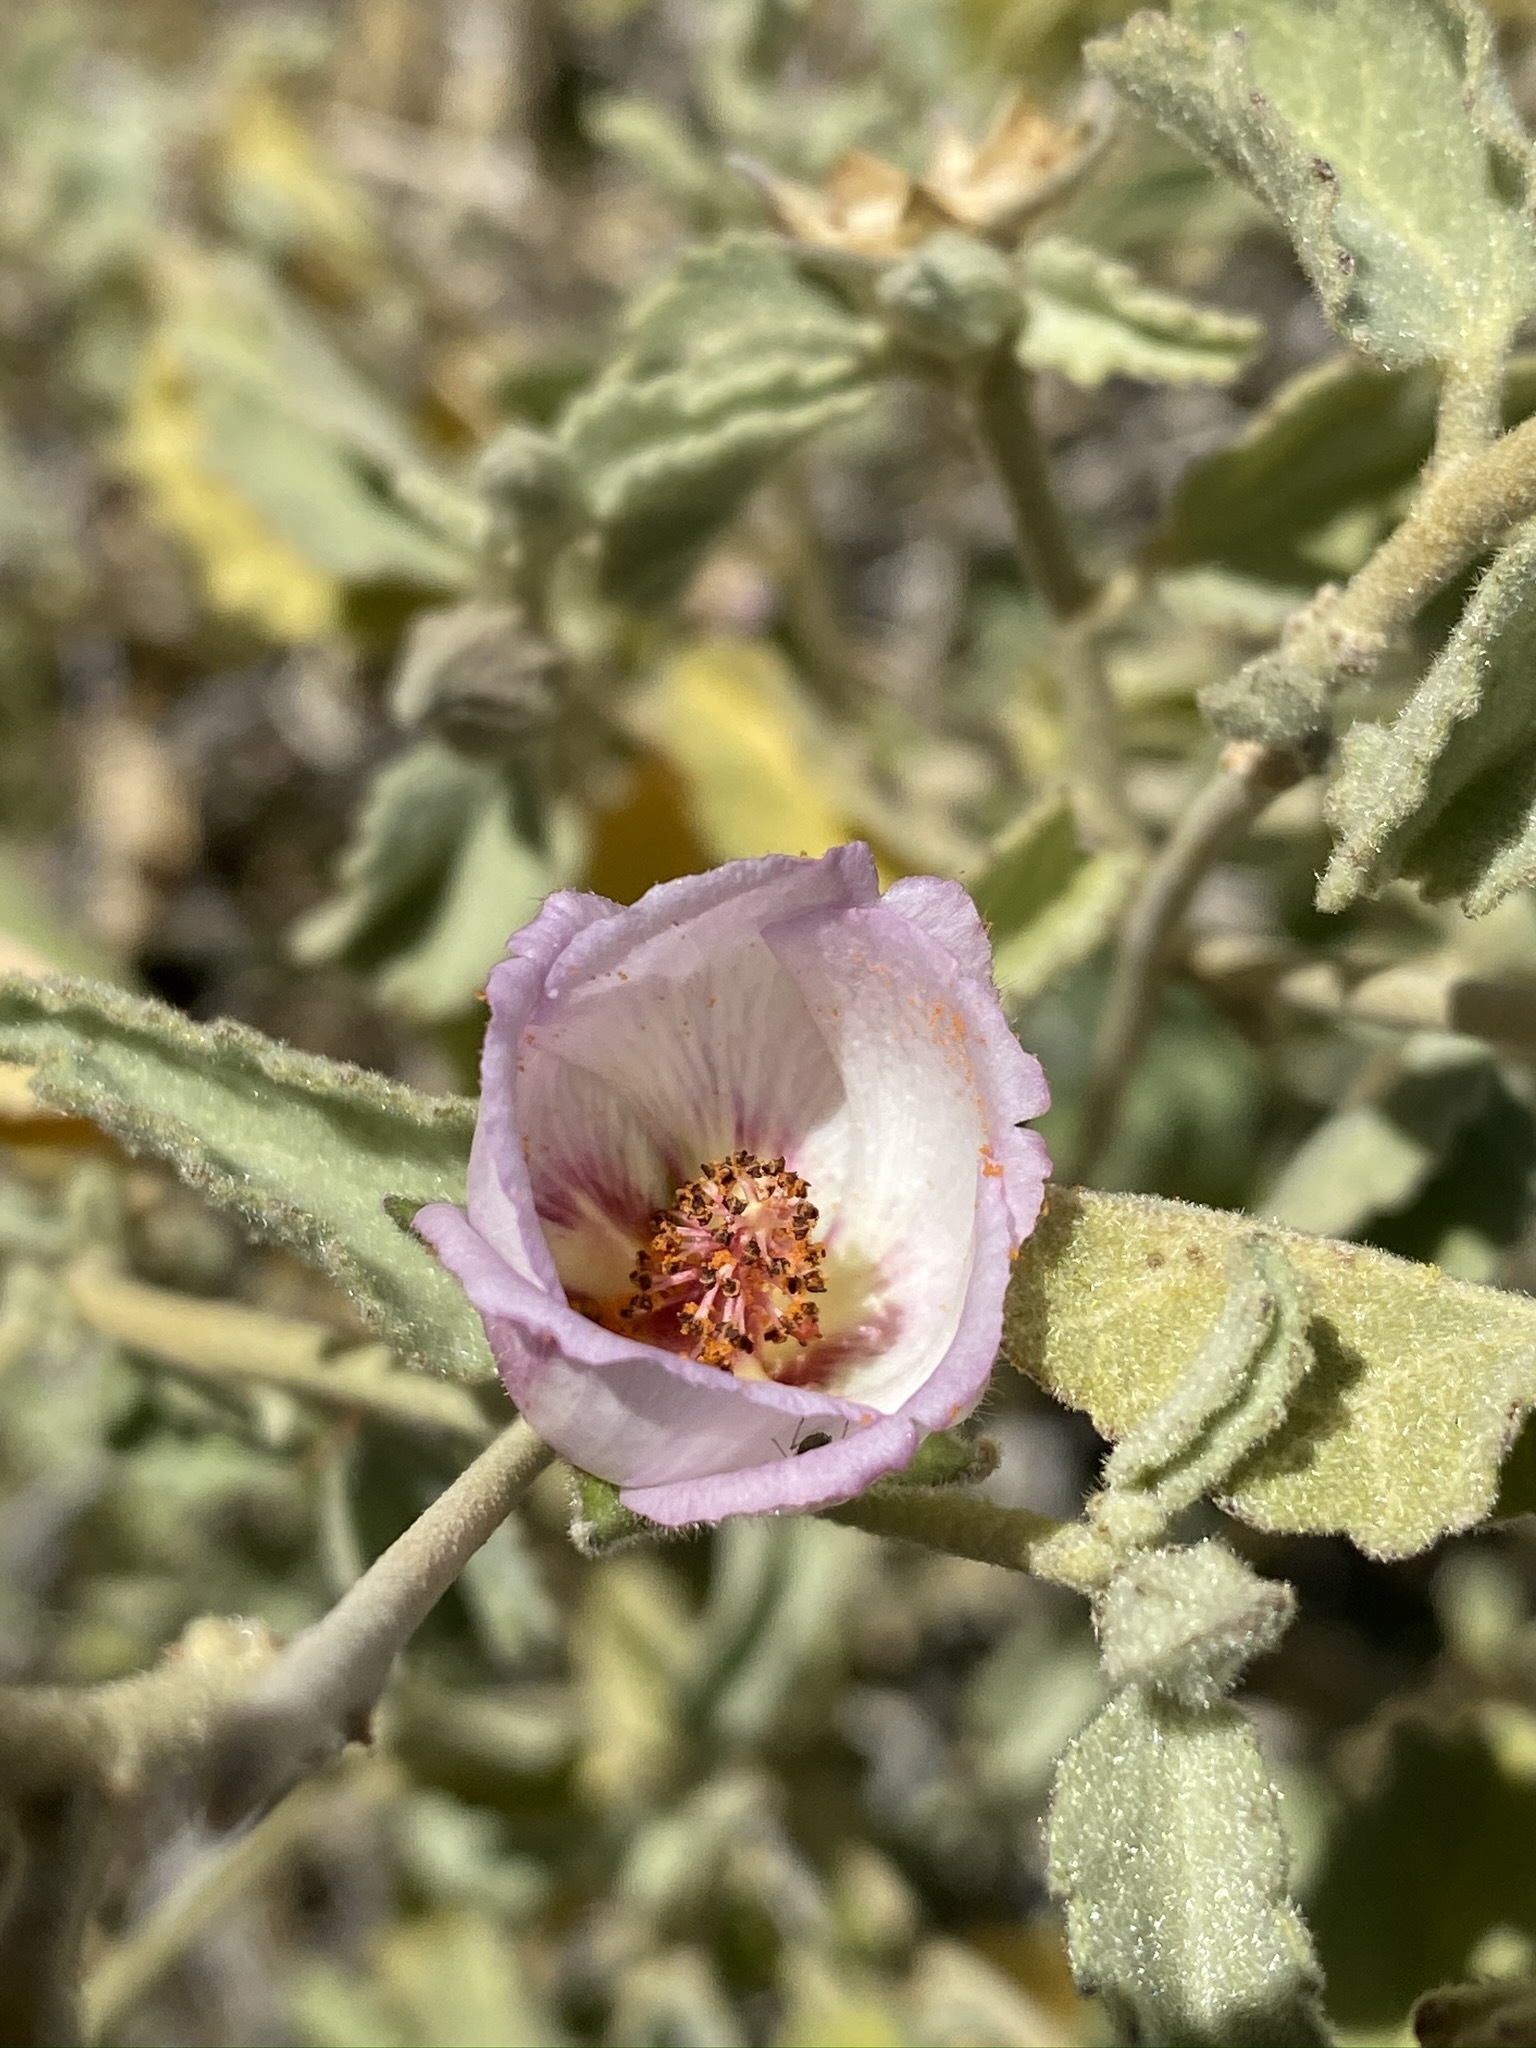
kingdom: Plantae
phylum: Tracheophyta
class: Magnoliopsida
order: Malvales
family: Malvaceae
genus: Hibiscus
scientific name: Hibiscus denudatus
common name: Paleface
